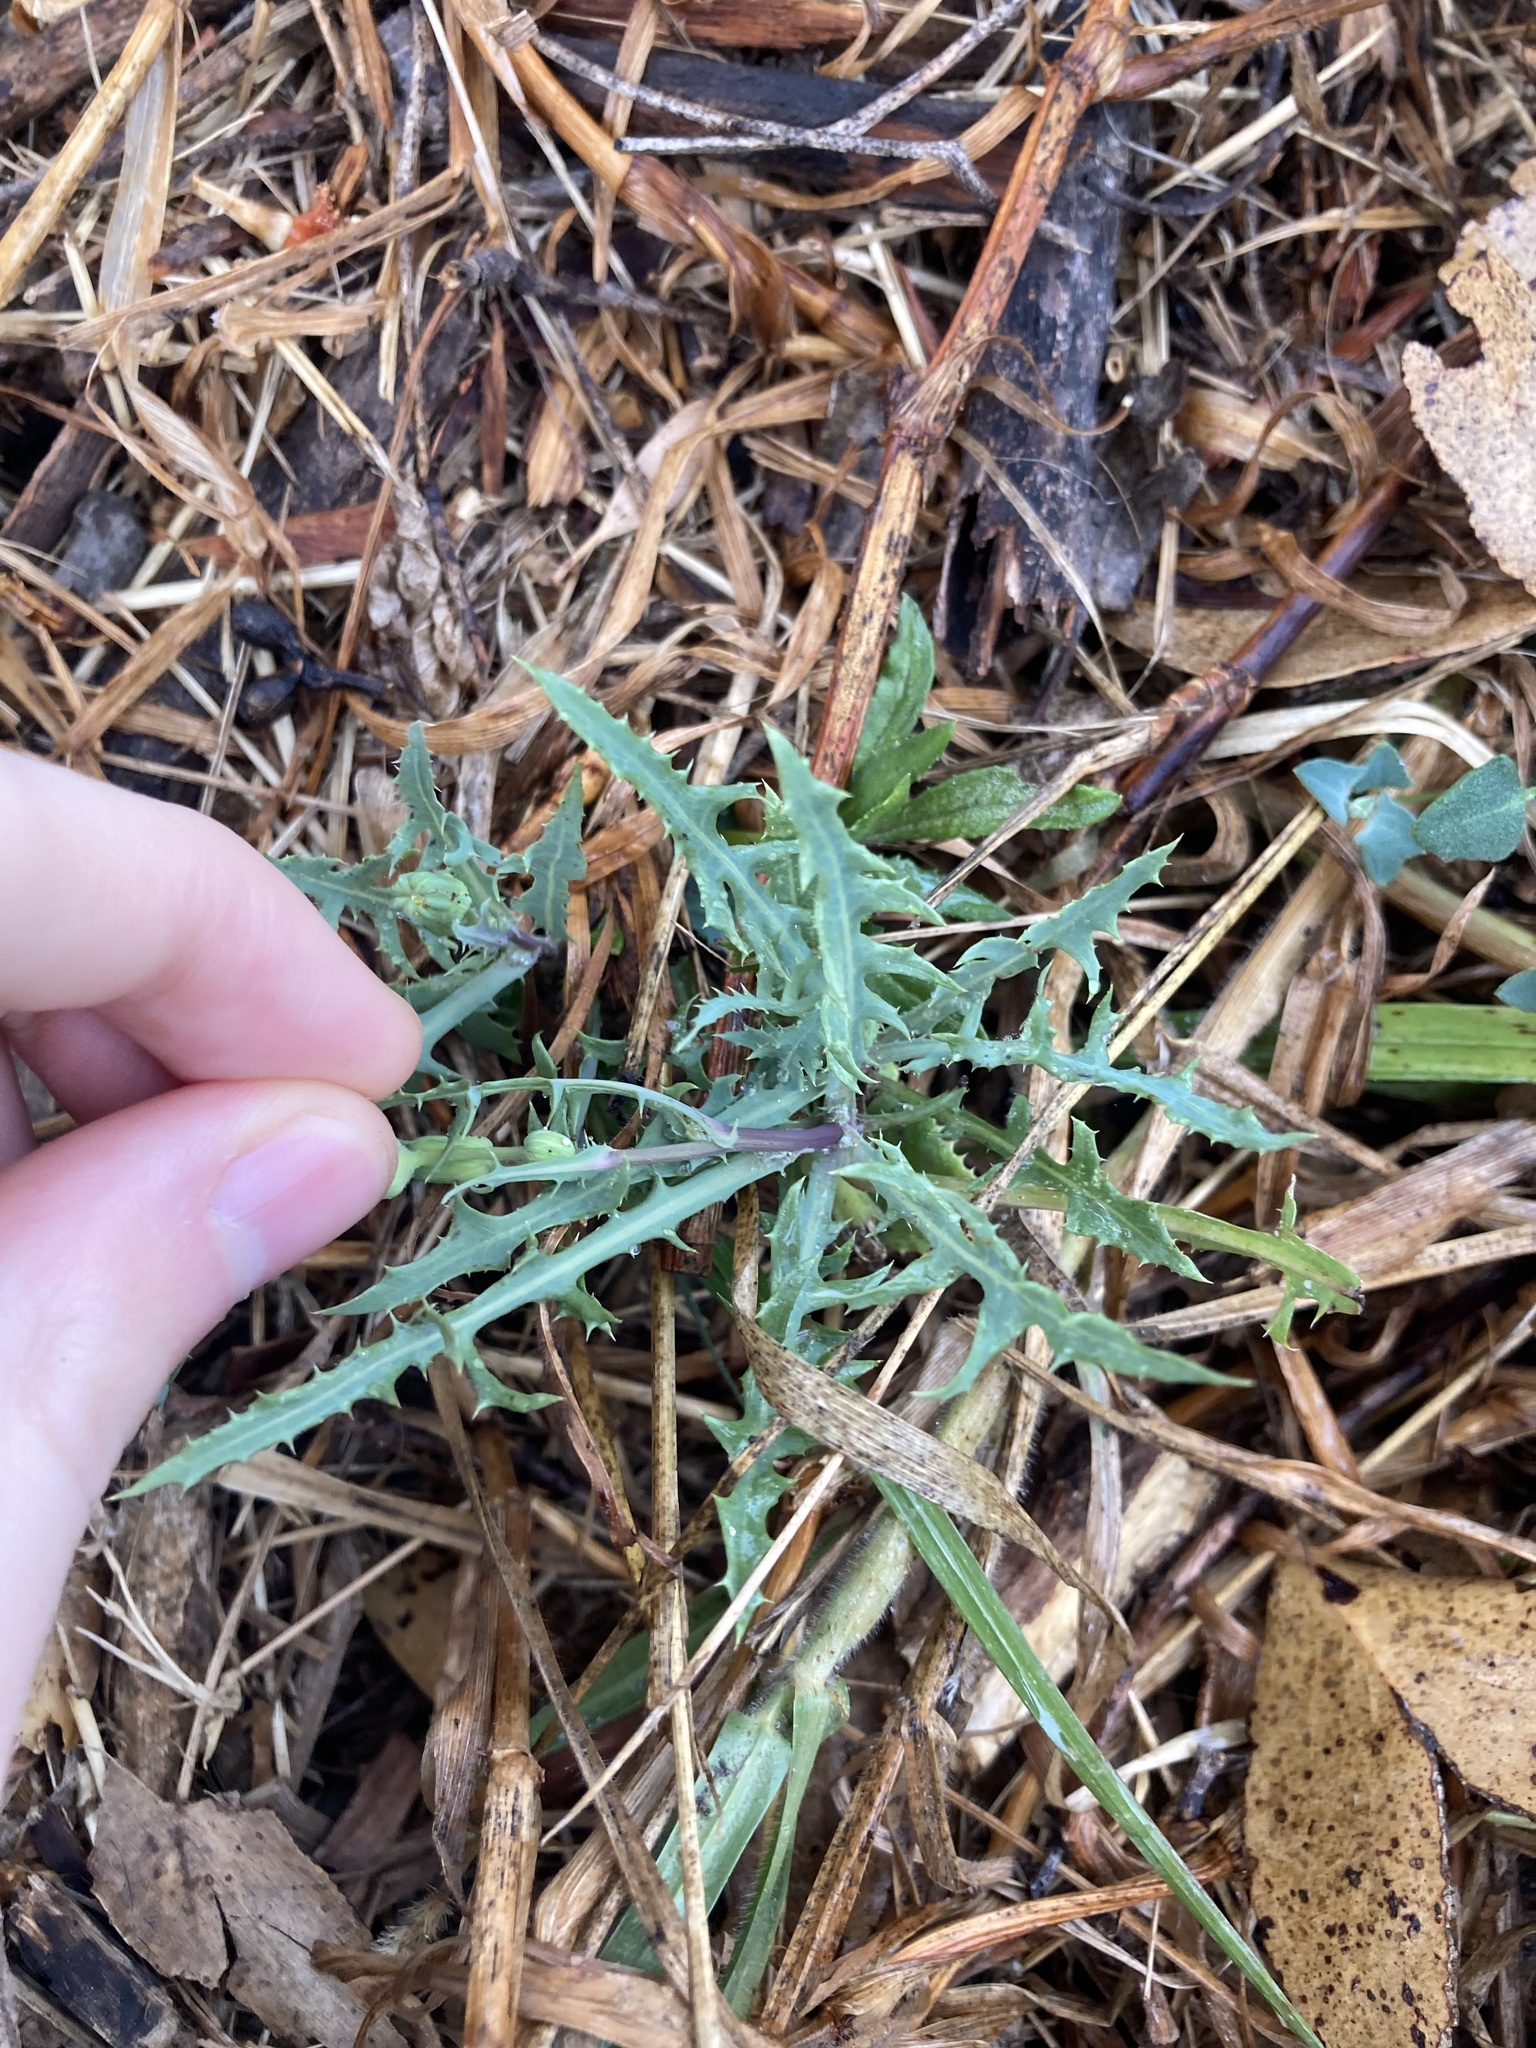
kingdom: Plantae
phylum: Tracheophyta
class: Magnoliopsida
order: Asterales
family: Asteraceae
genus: Sonchus
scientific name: Sonchus oleraceus
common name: Common sowthistle
